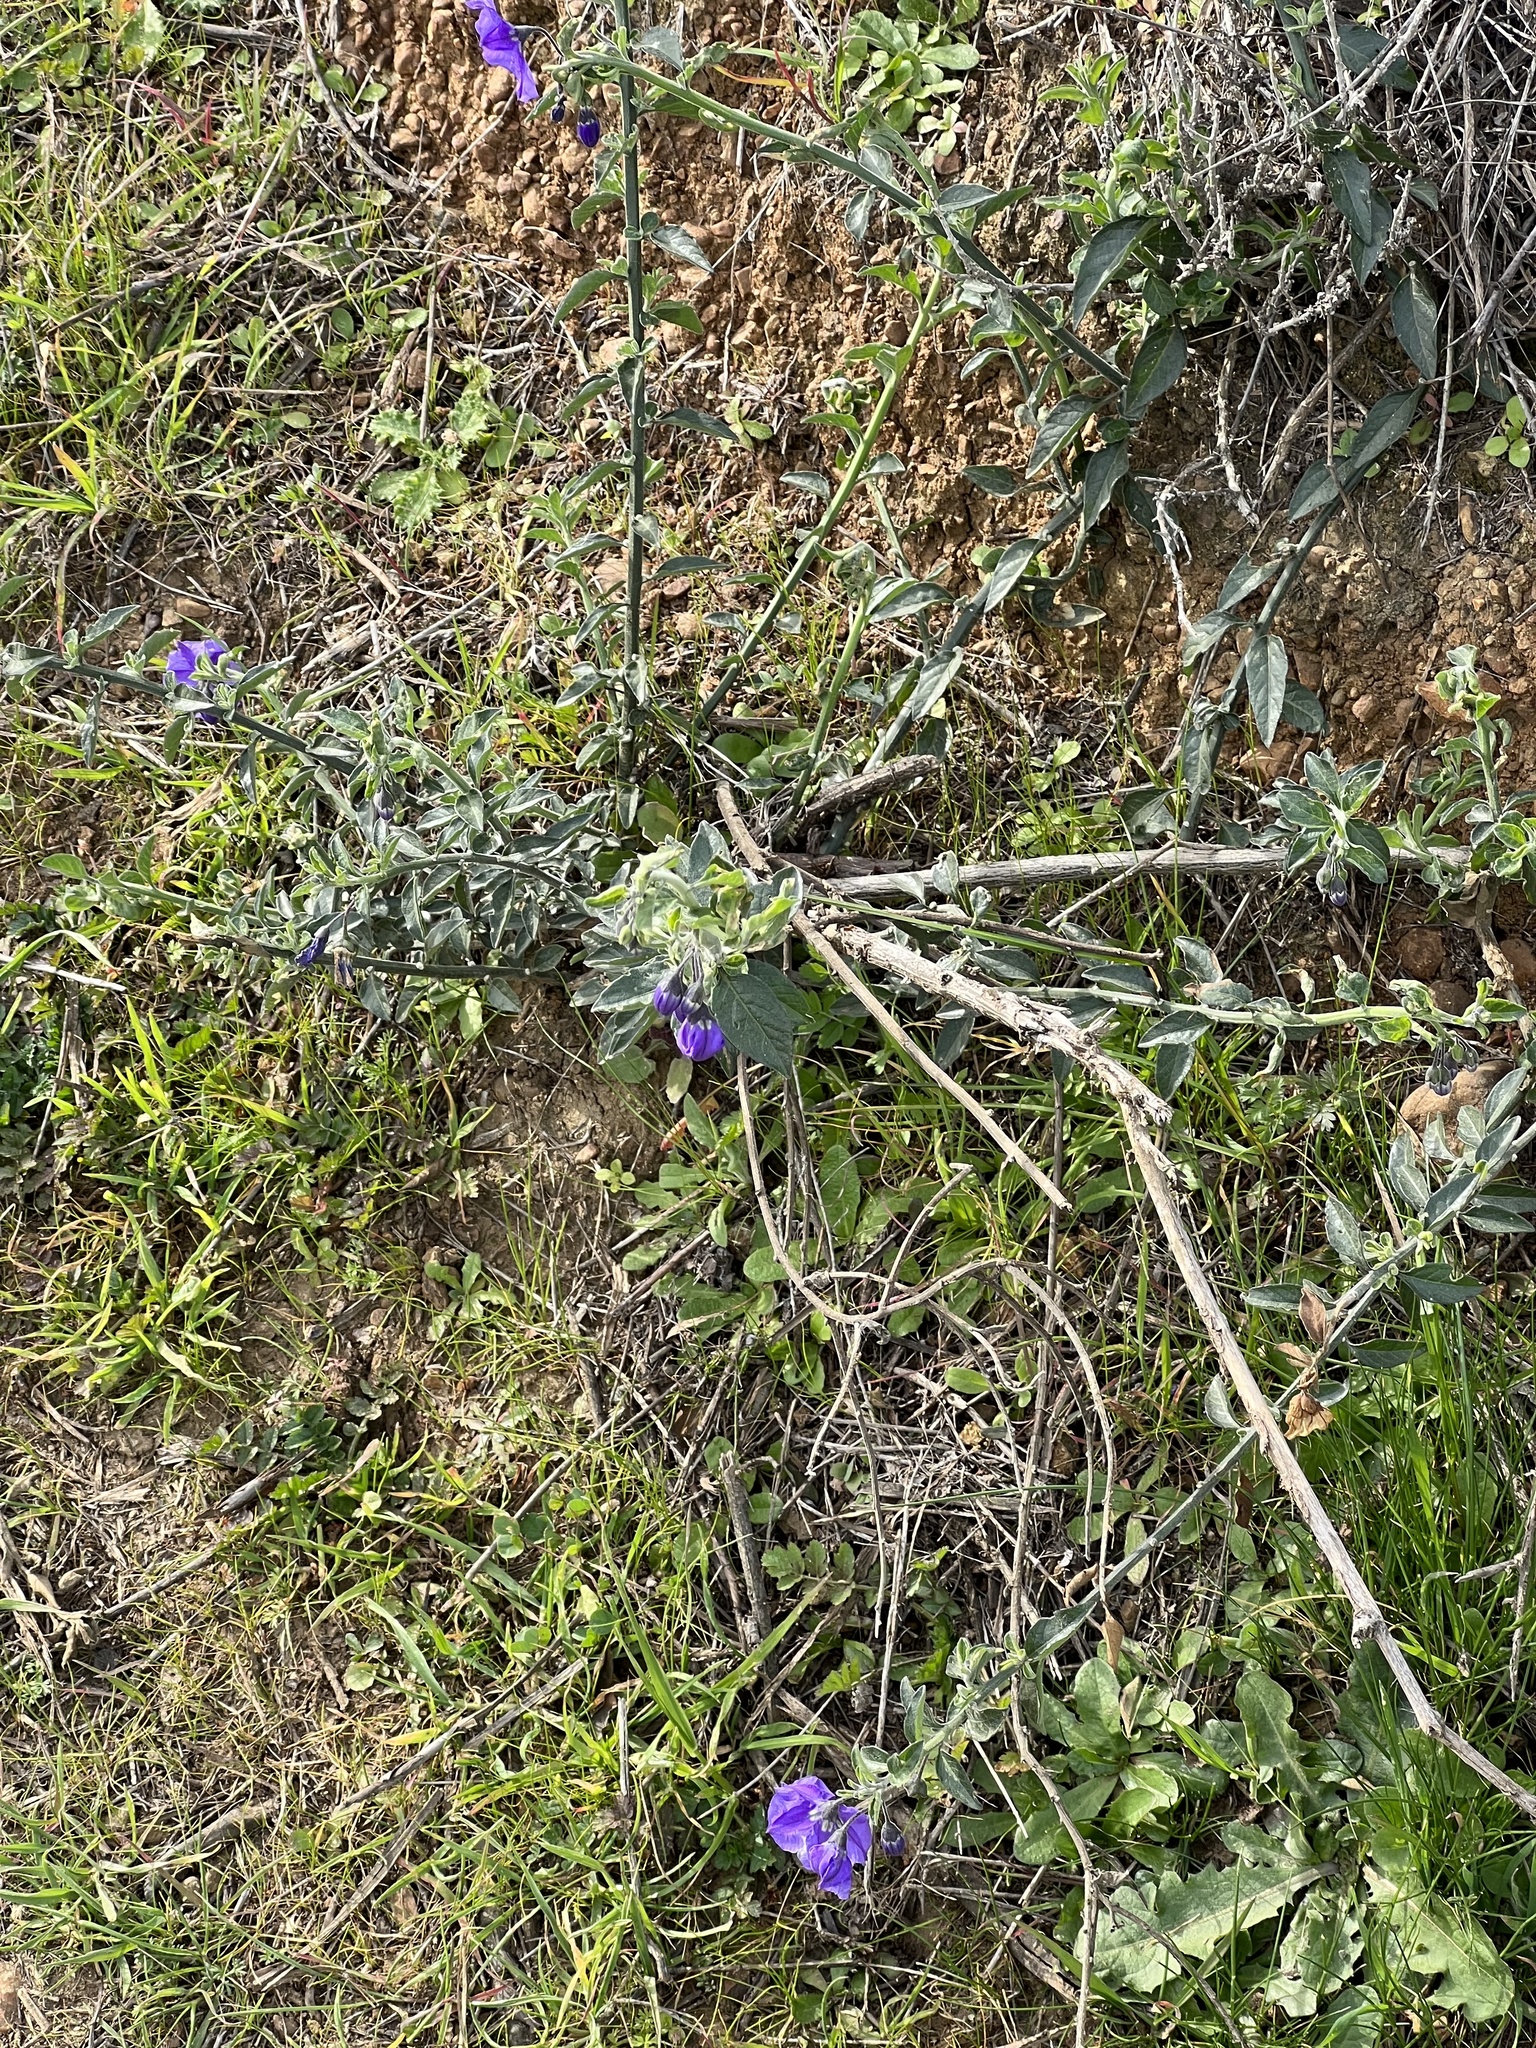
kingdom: Plantae
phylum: Tracheophyta
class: Magnoliopsida
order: Solanales
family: Solanaceae
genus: Solanum
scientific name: Solanum umbelliferum
